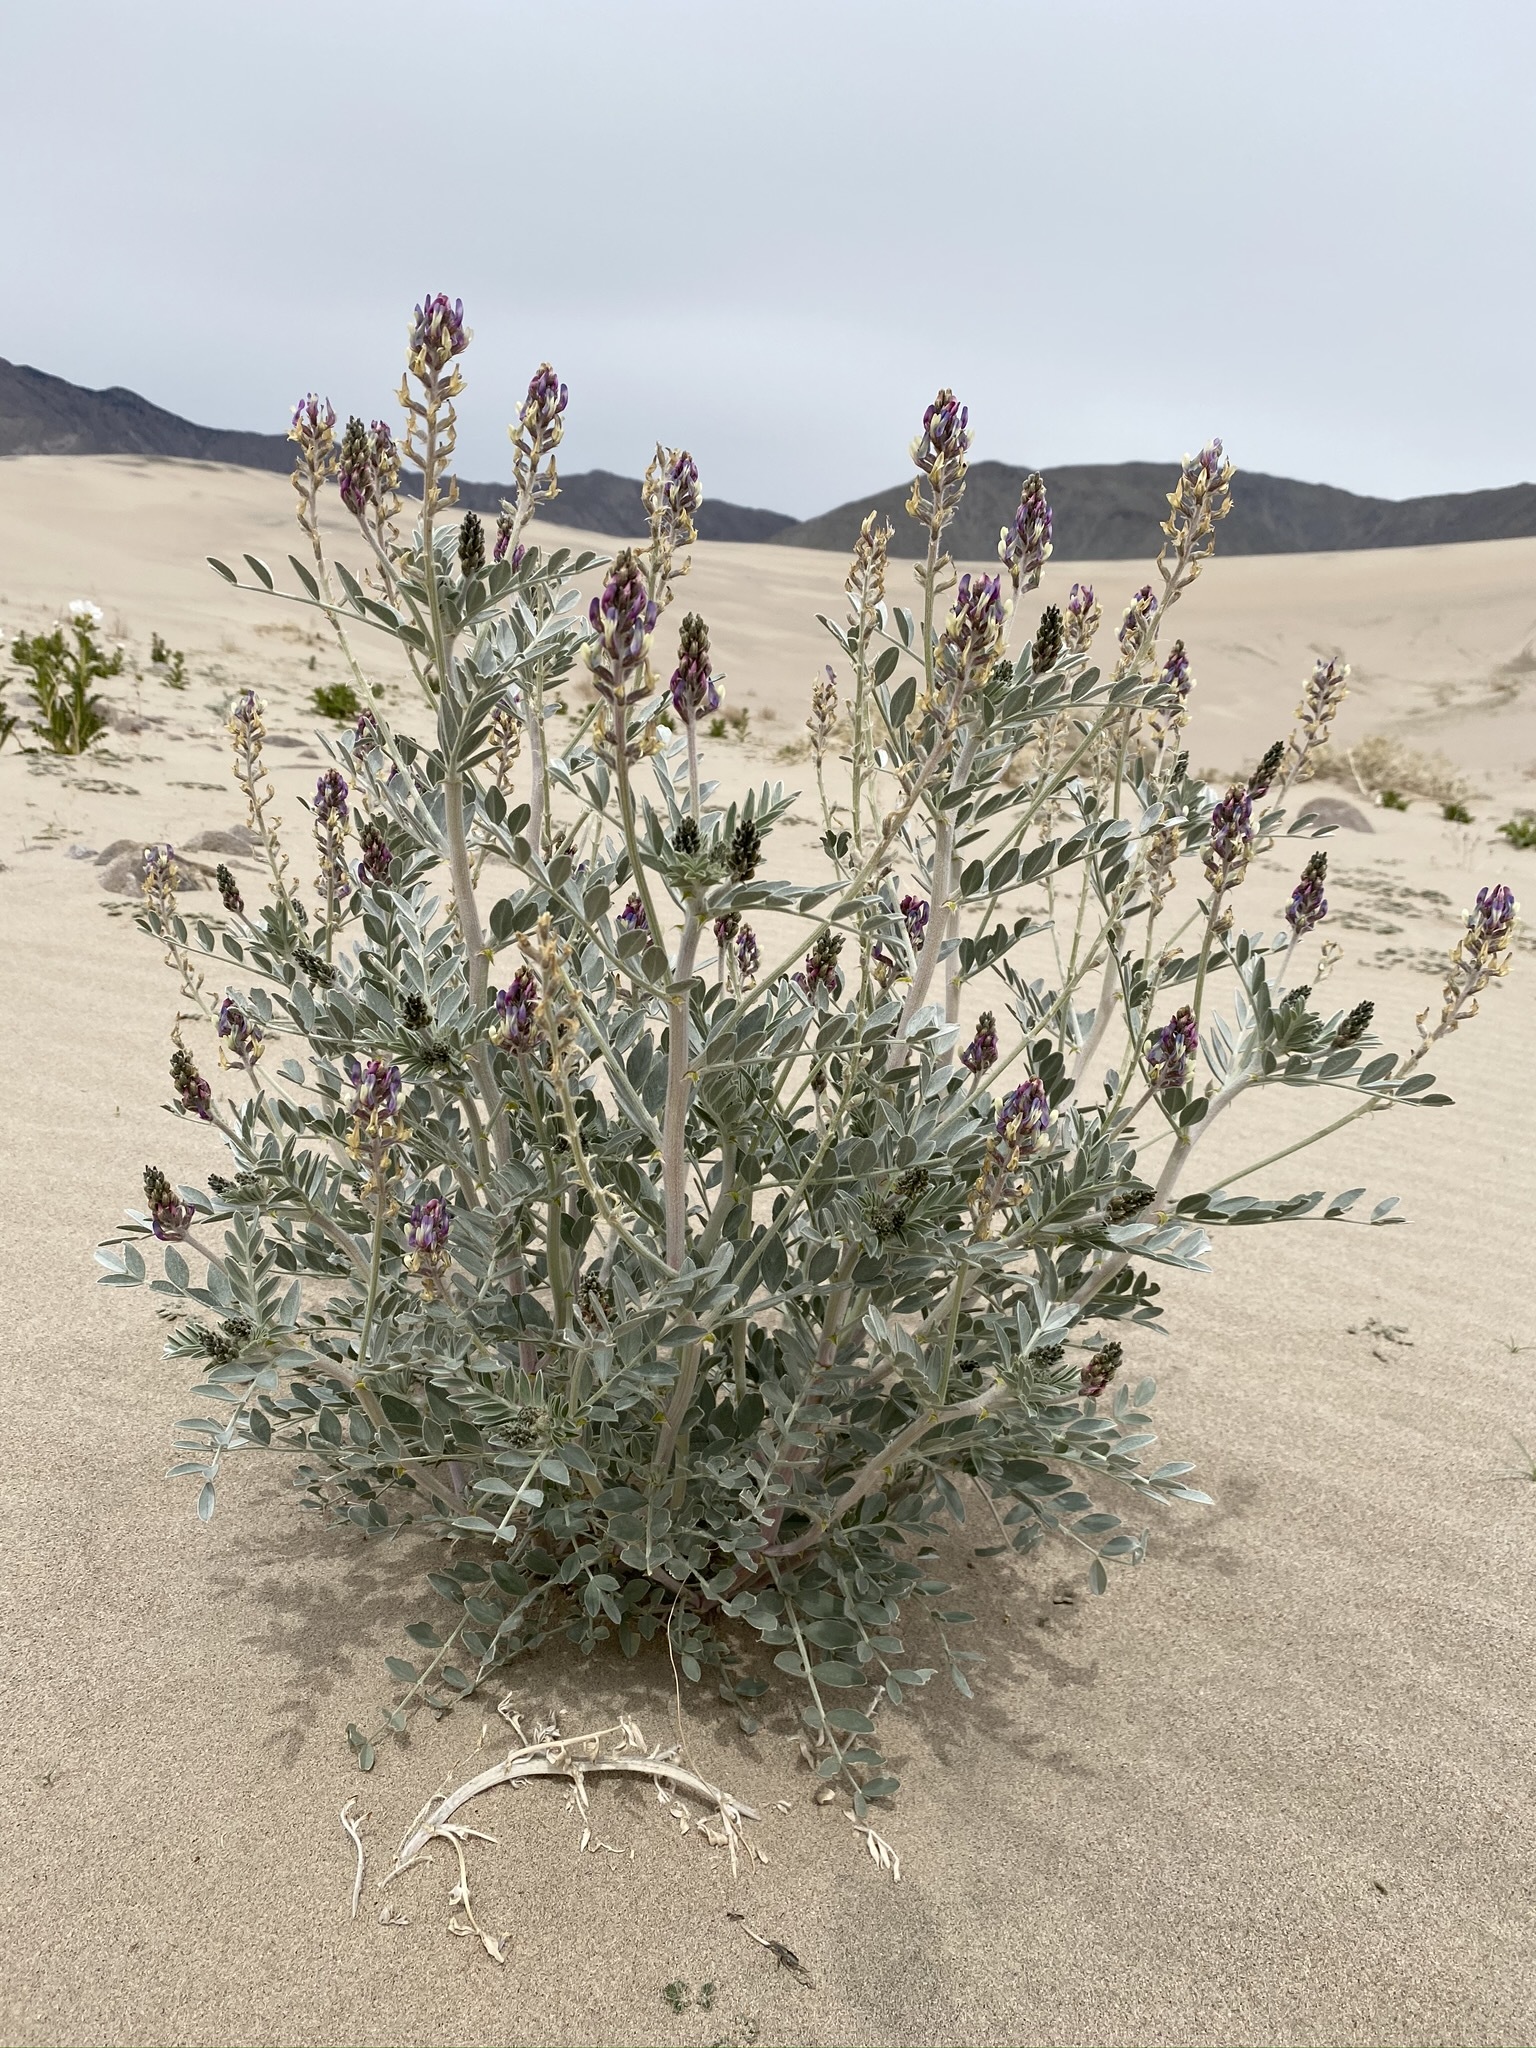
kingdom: Plantae
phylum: Tracheophyta
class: Magnoliopsida
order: Fabales
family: Fabaceae
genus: Astragalus
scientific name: Astragalus lentiginosus
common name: Freckled milkvetch
